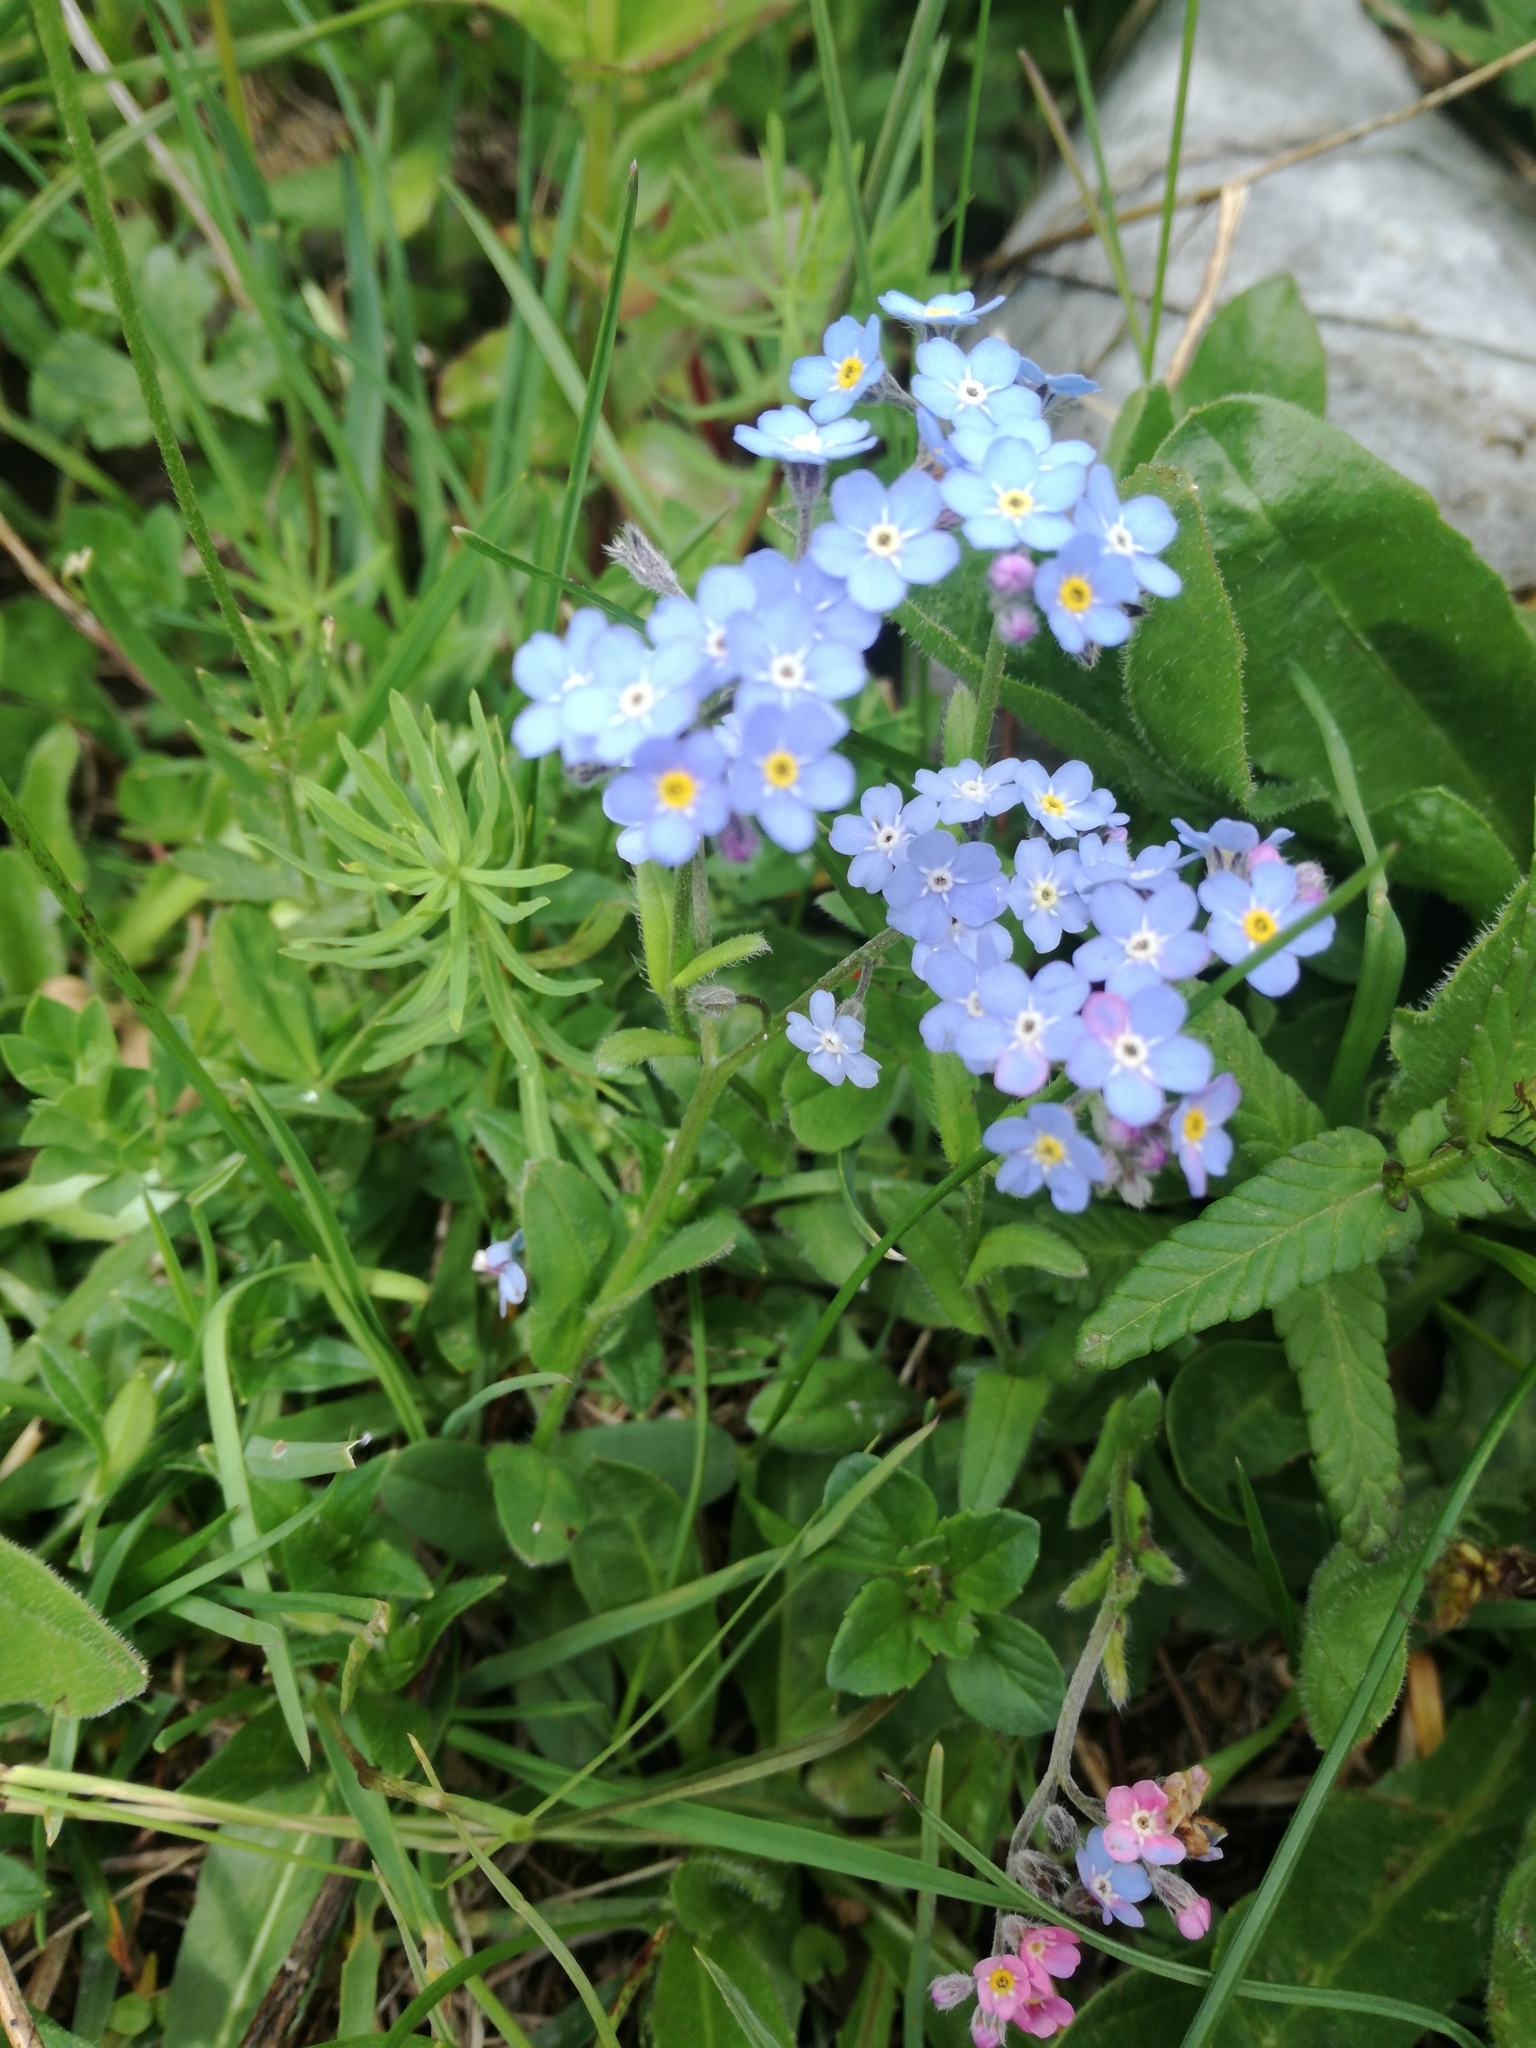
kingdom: Plantae
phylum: Tracheophyta
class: Magnoliopsida
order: Boraginales
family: Boraginaceae
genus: Myosotis
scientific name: Myosotis alpestris
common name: Alpine forget-me-not
